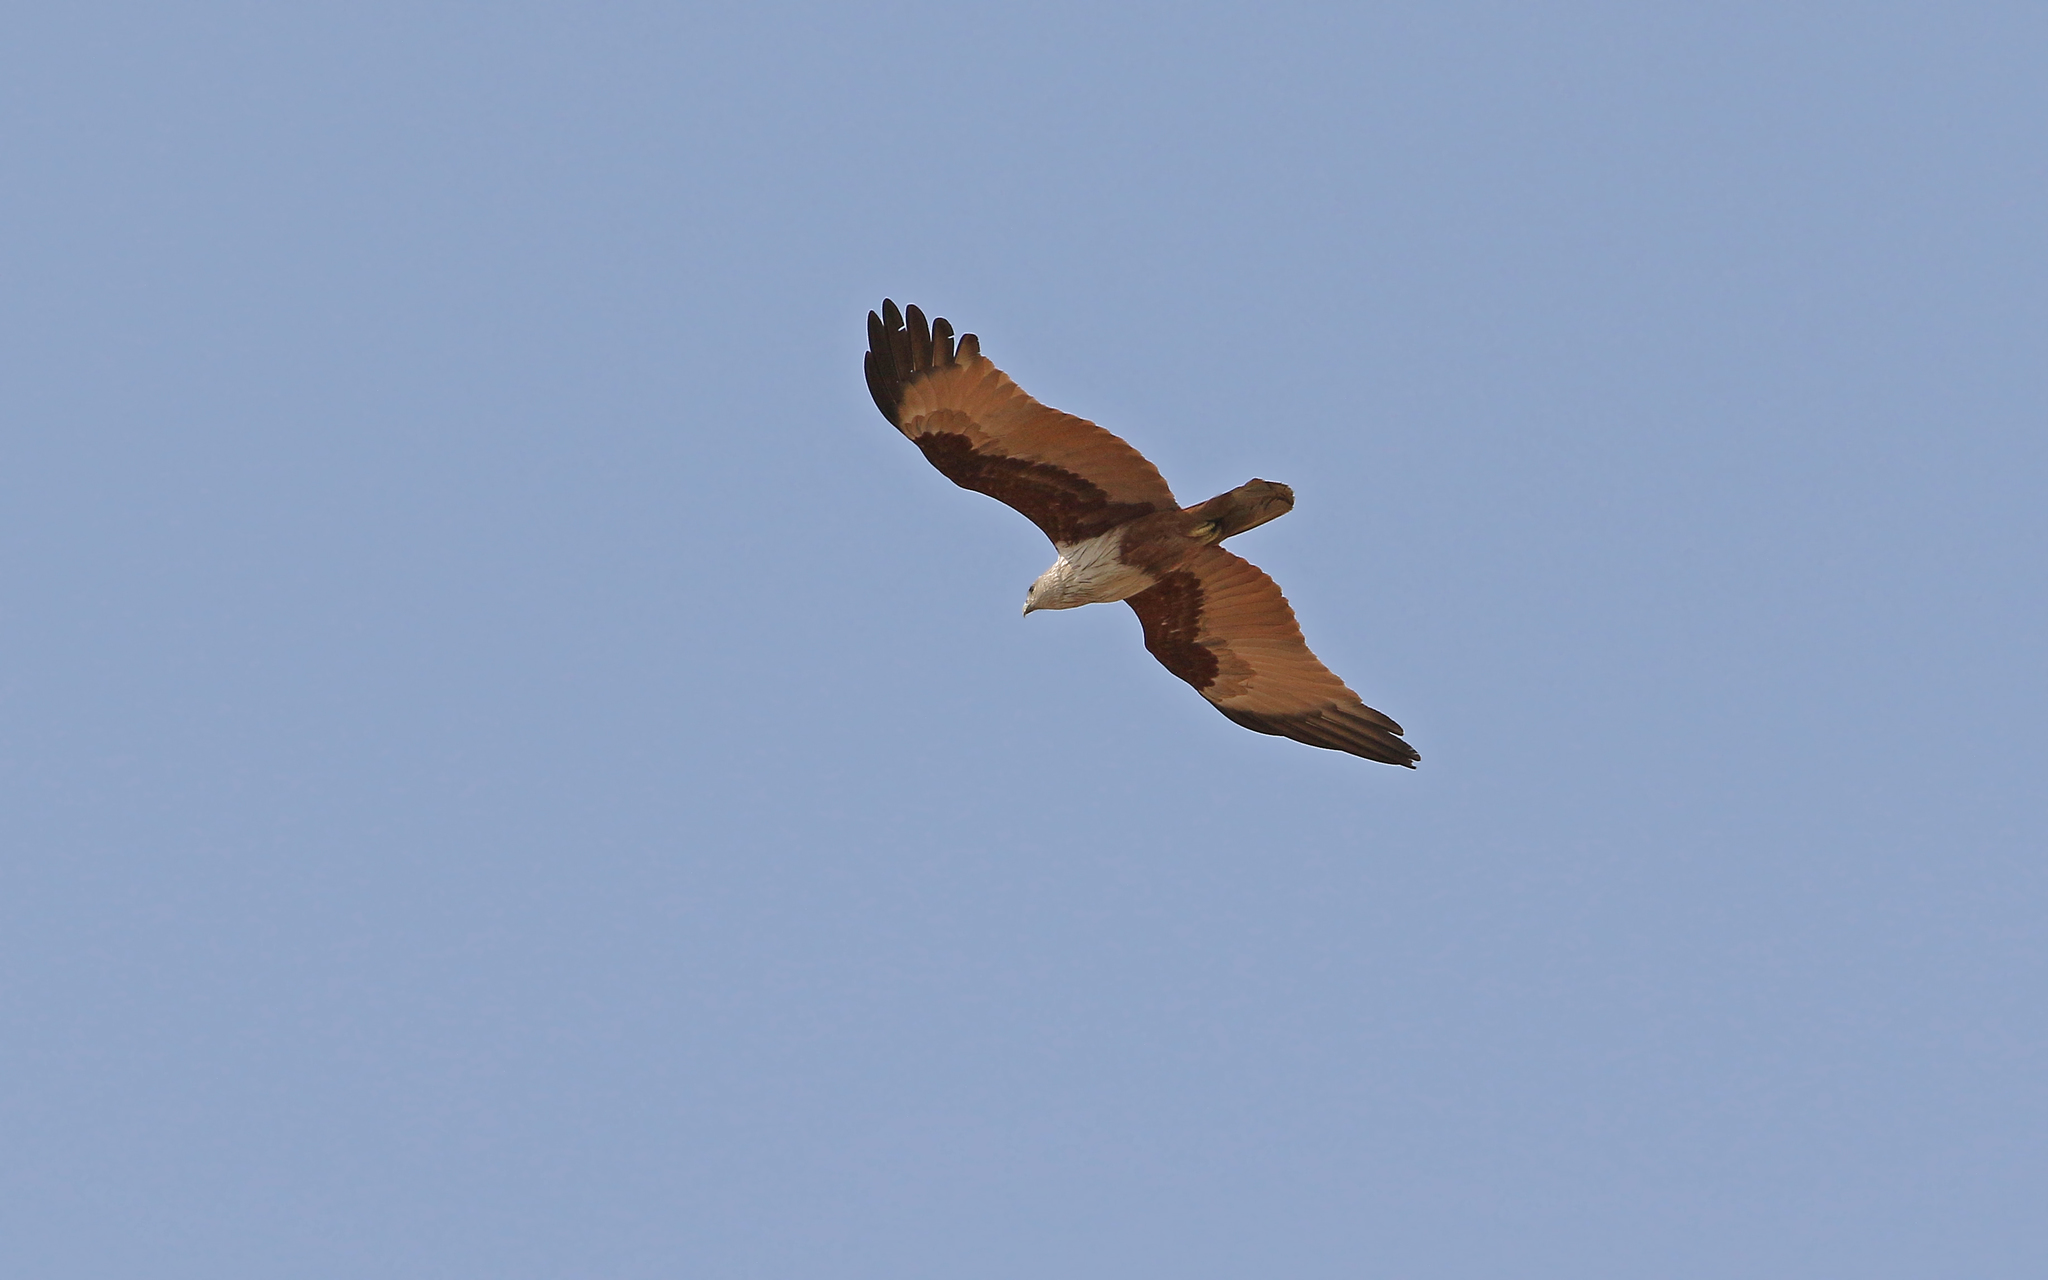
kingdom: Animalia
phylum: Chordata
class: Aves
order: Accipitriformes
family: Accipitridae
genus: Haliastur
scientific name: Haliastur indus
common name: Brahminy kite
